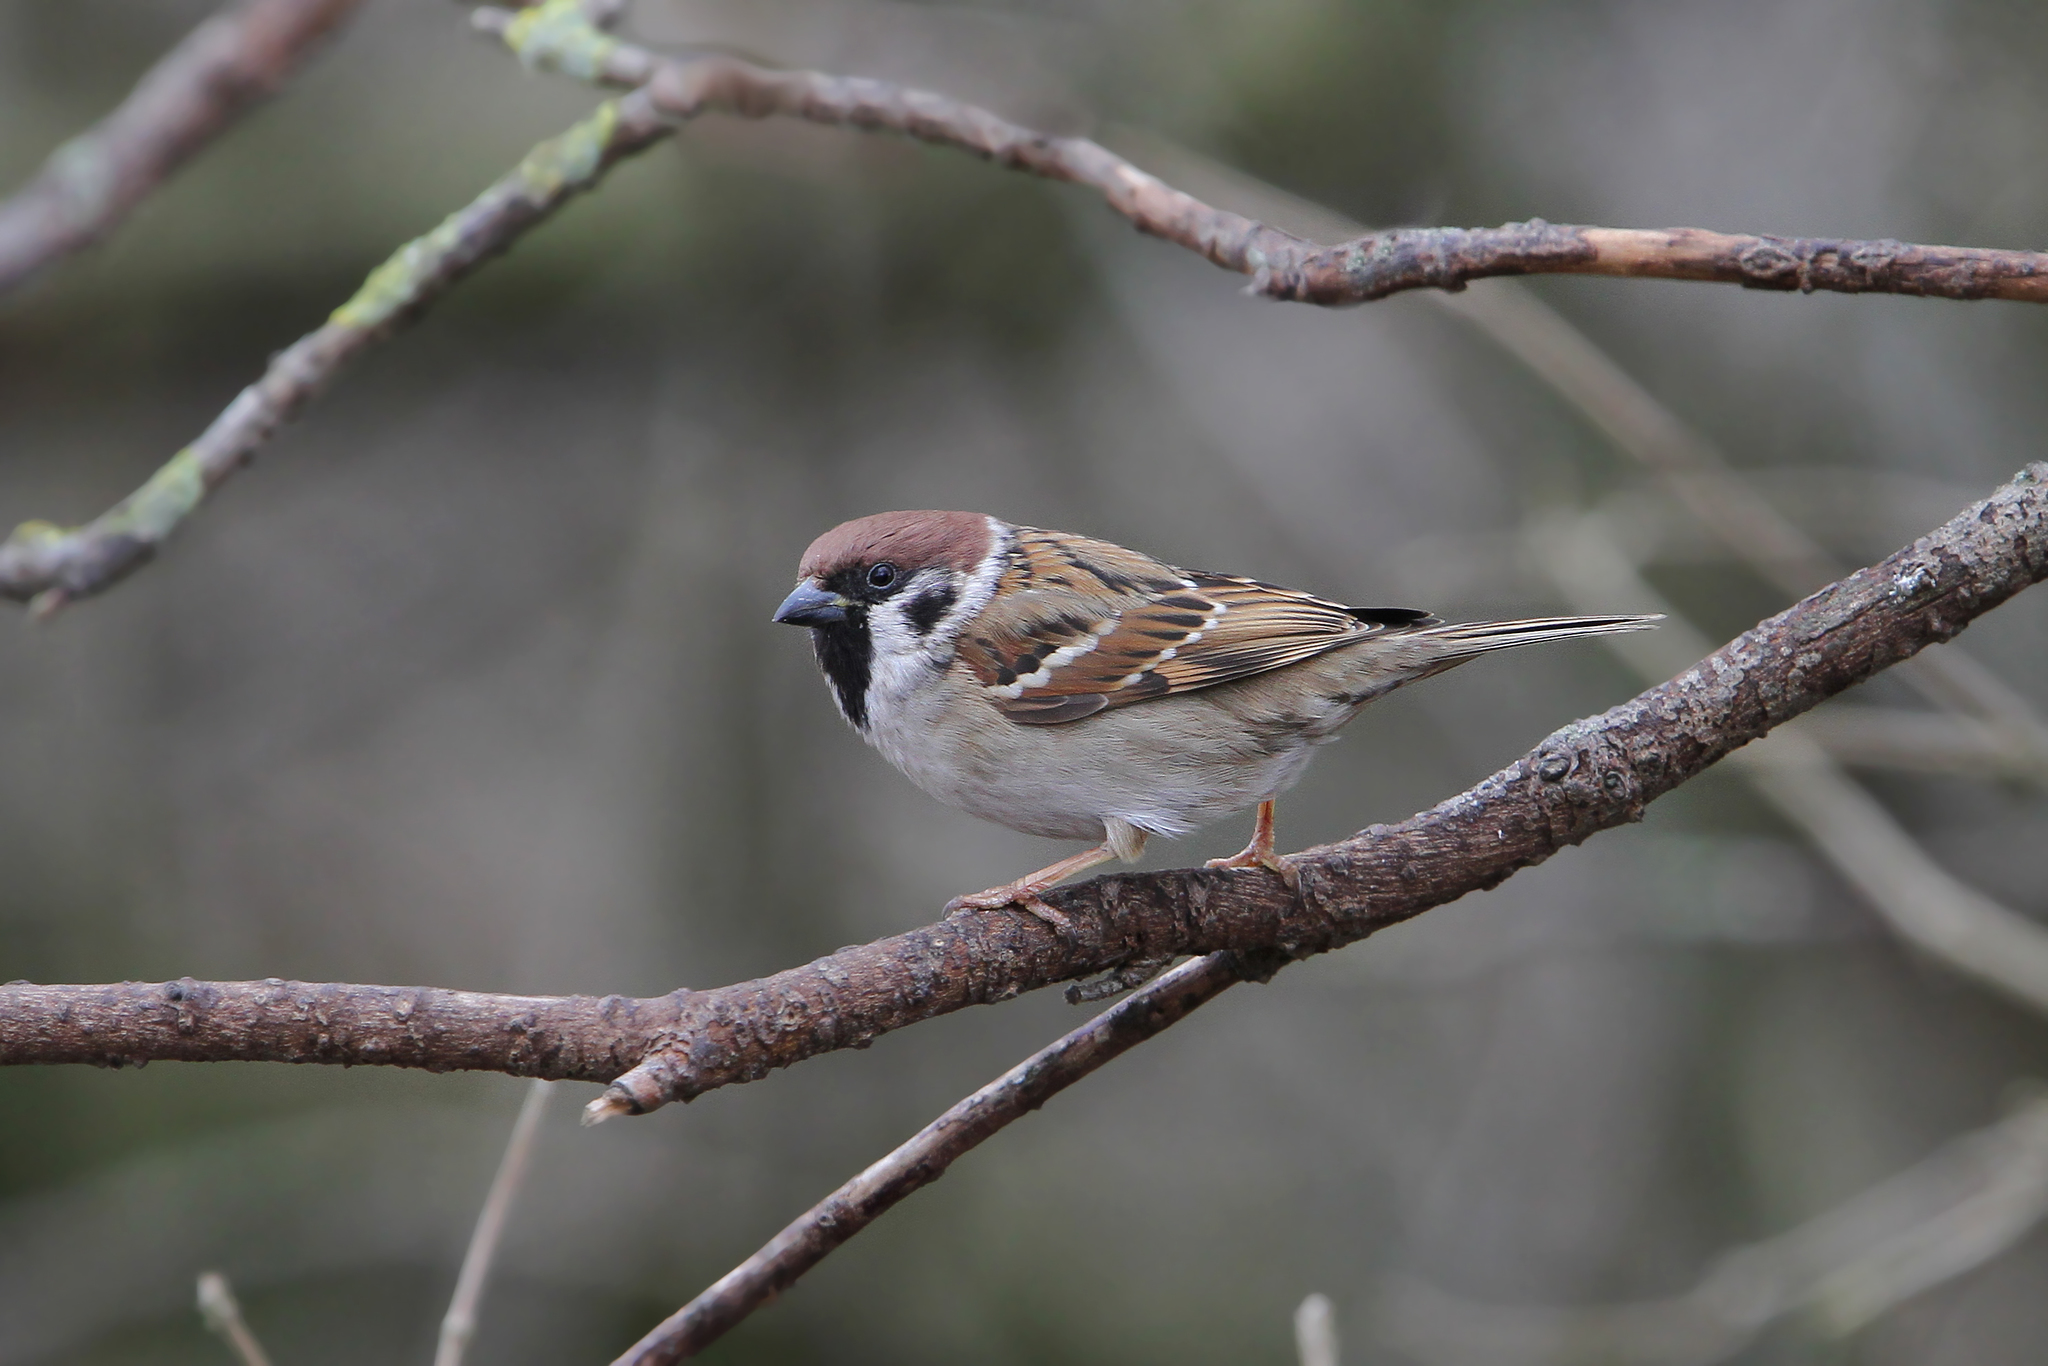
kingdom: Animalia
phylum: Chordata
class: Aves
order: Passeriformes
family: Passeridae
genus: Passer
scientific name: Passer montanus
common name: Eurasian tree sparrow
